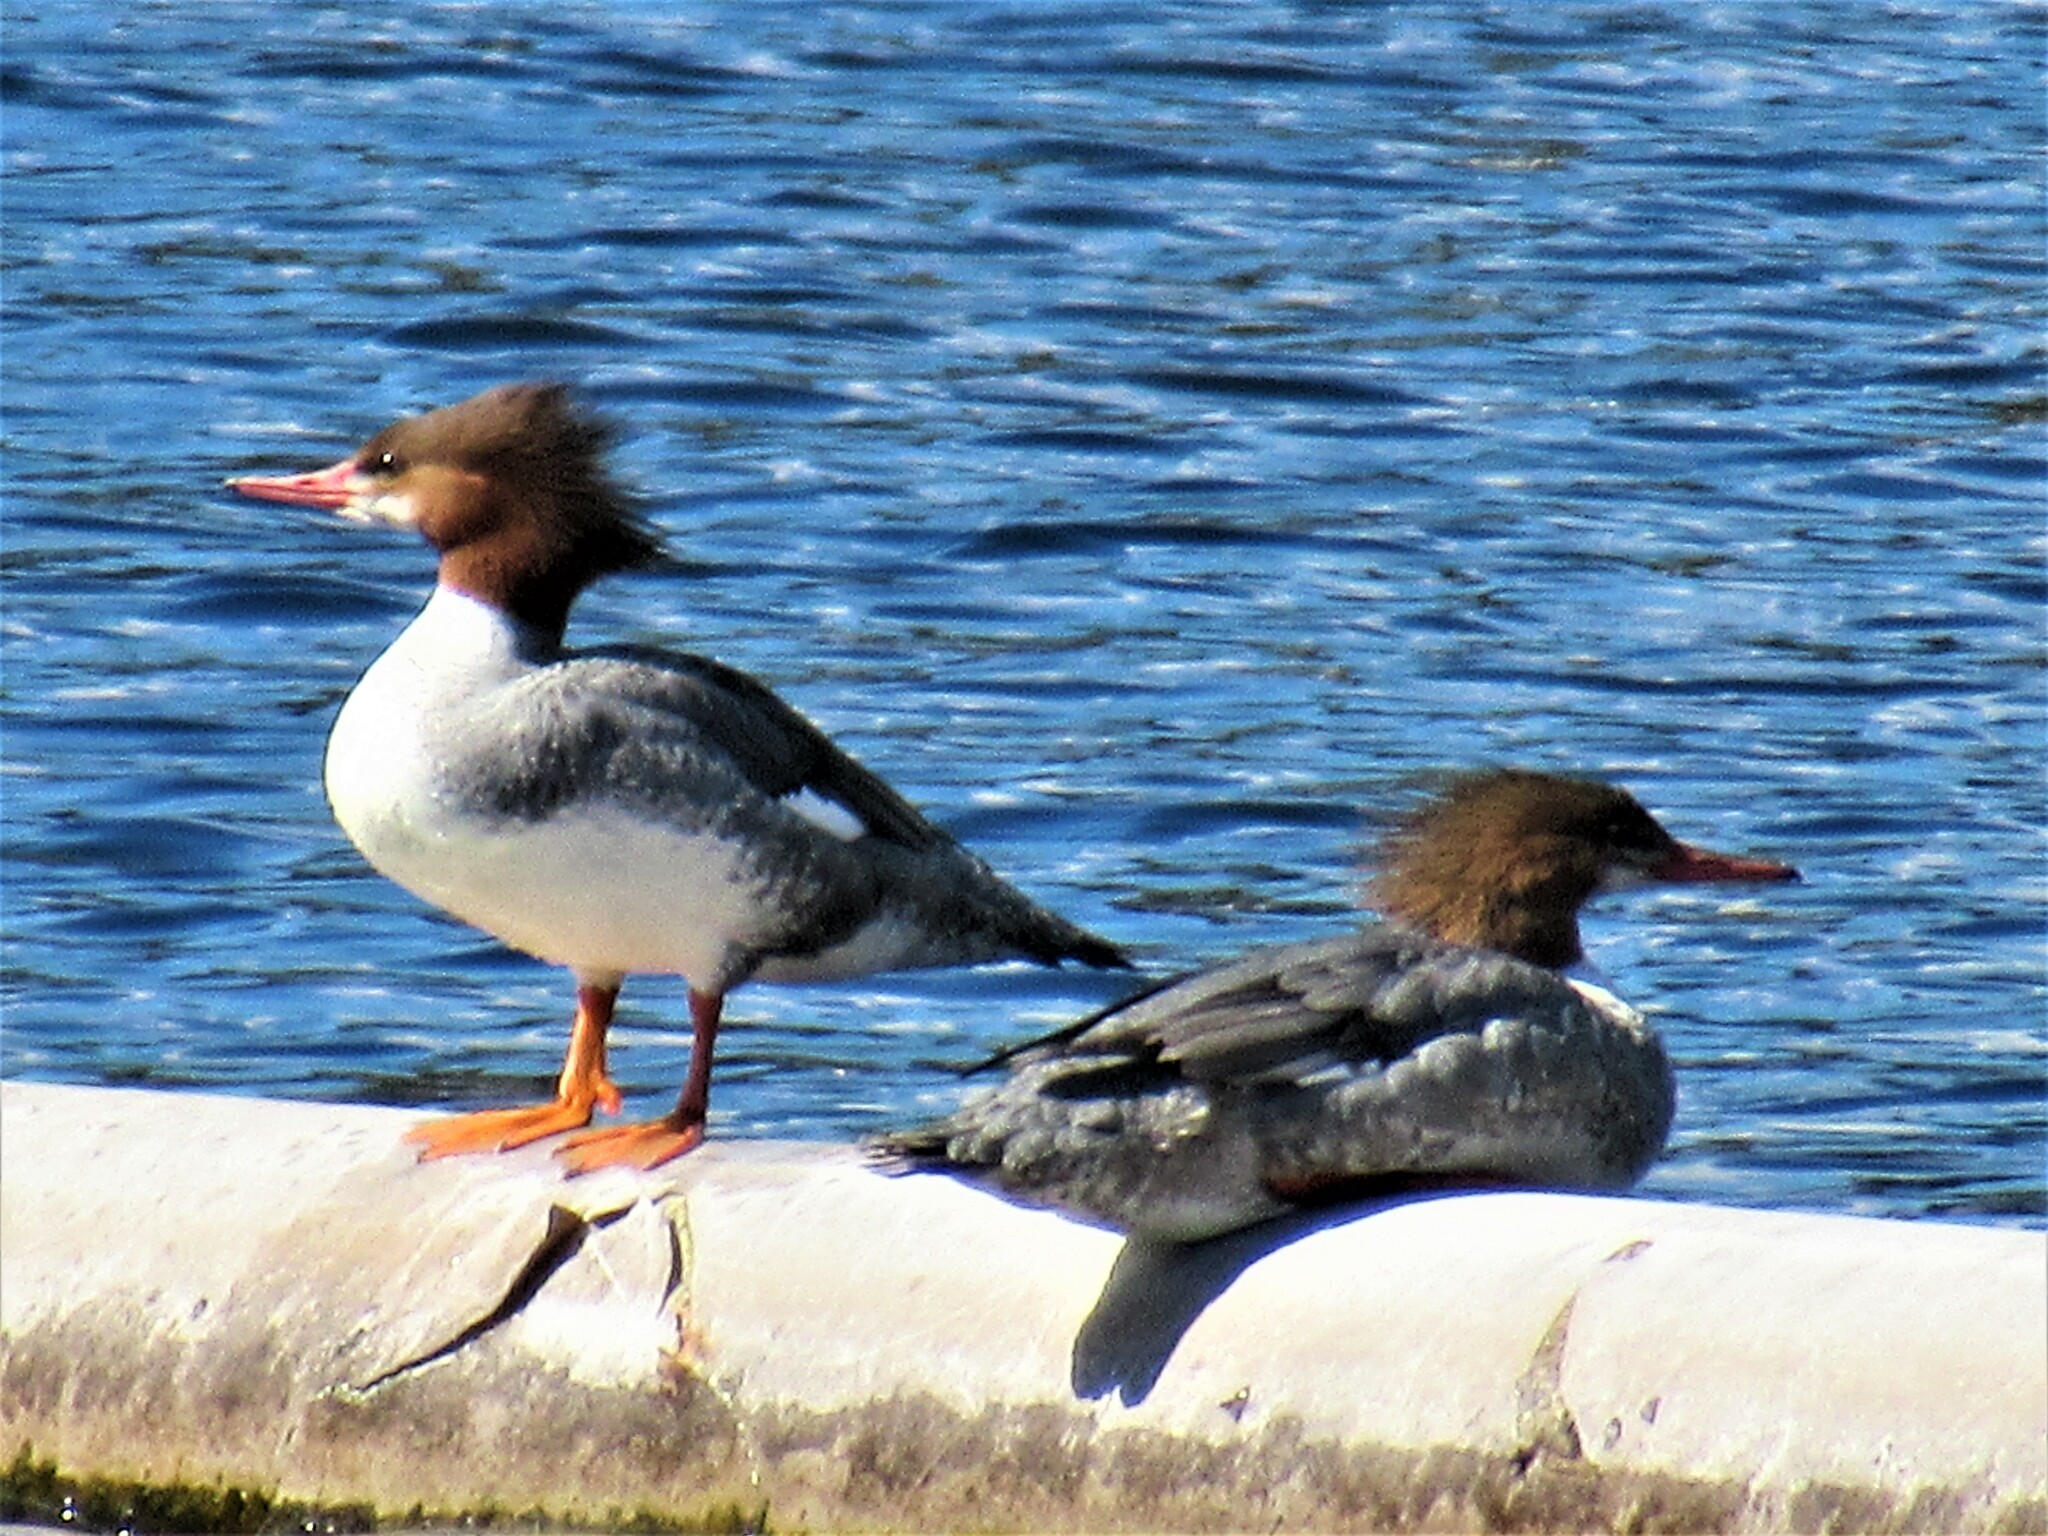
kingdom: Animalia
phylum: Chordata
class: Aves
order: Anseriformes
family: Anatidae
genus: Mergus
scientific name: Mergus merganser
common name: Common merganser
